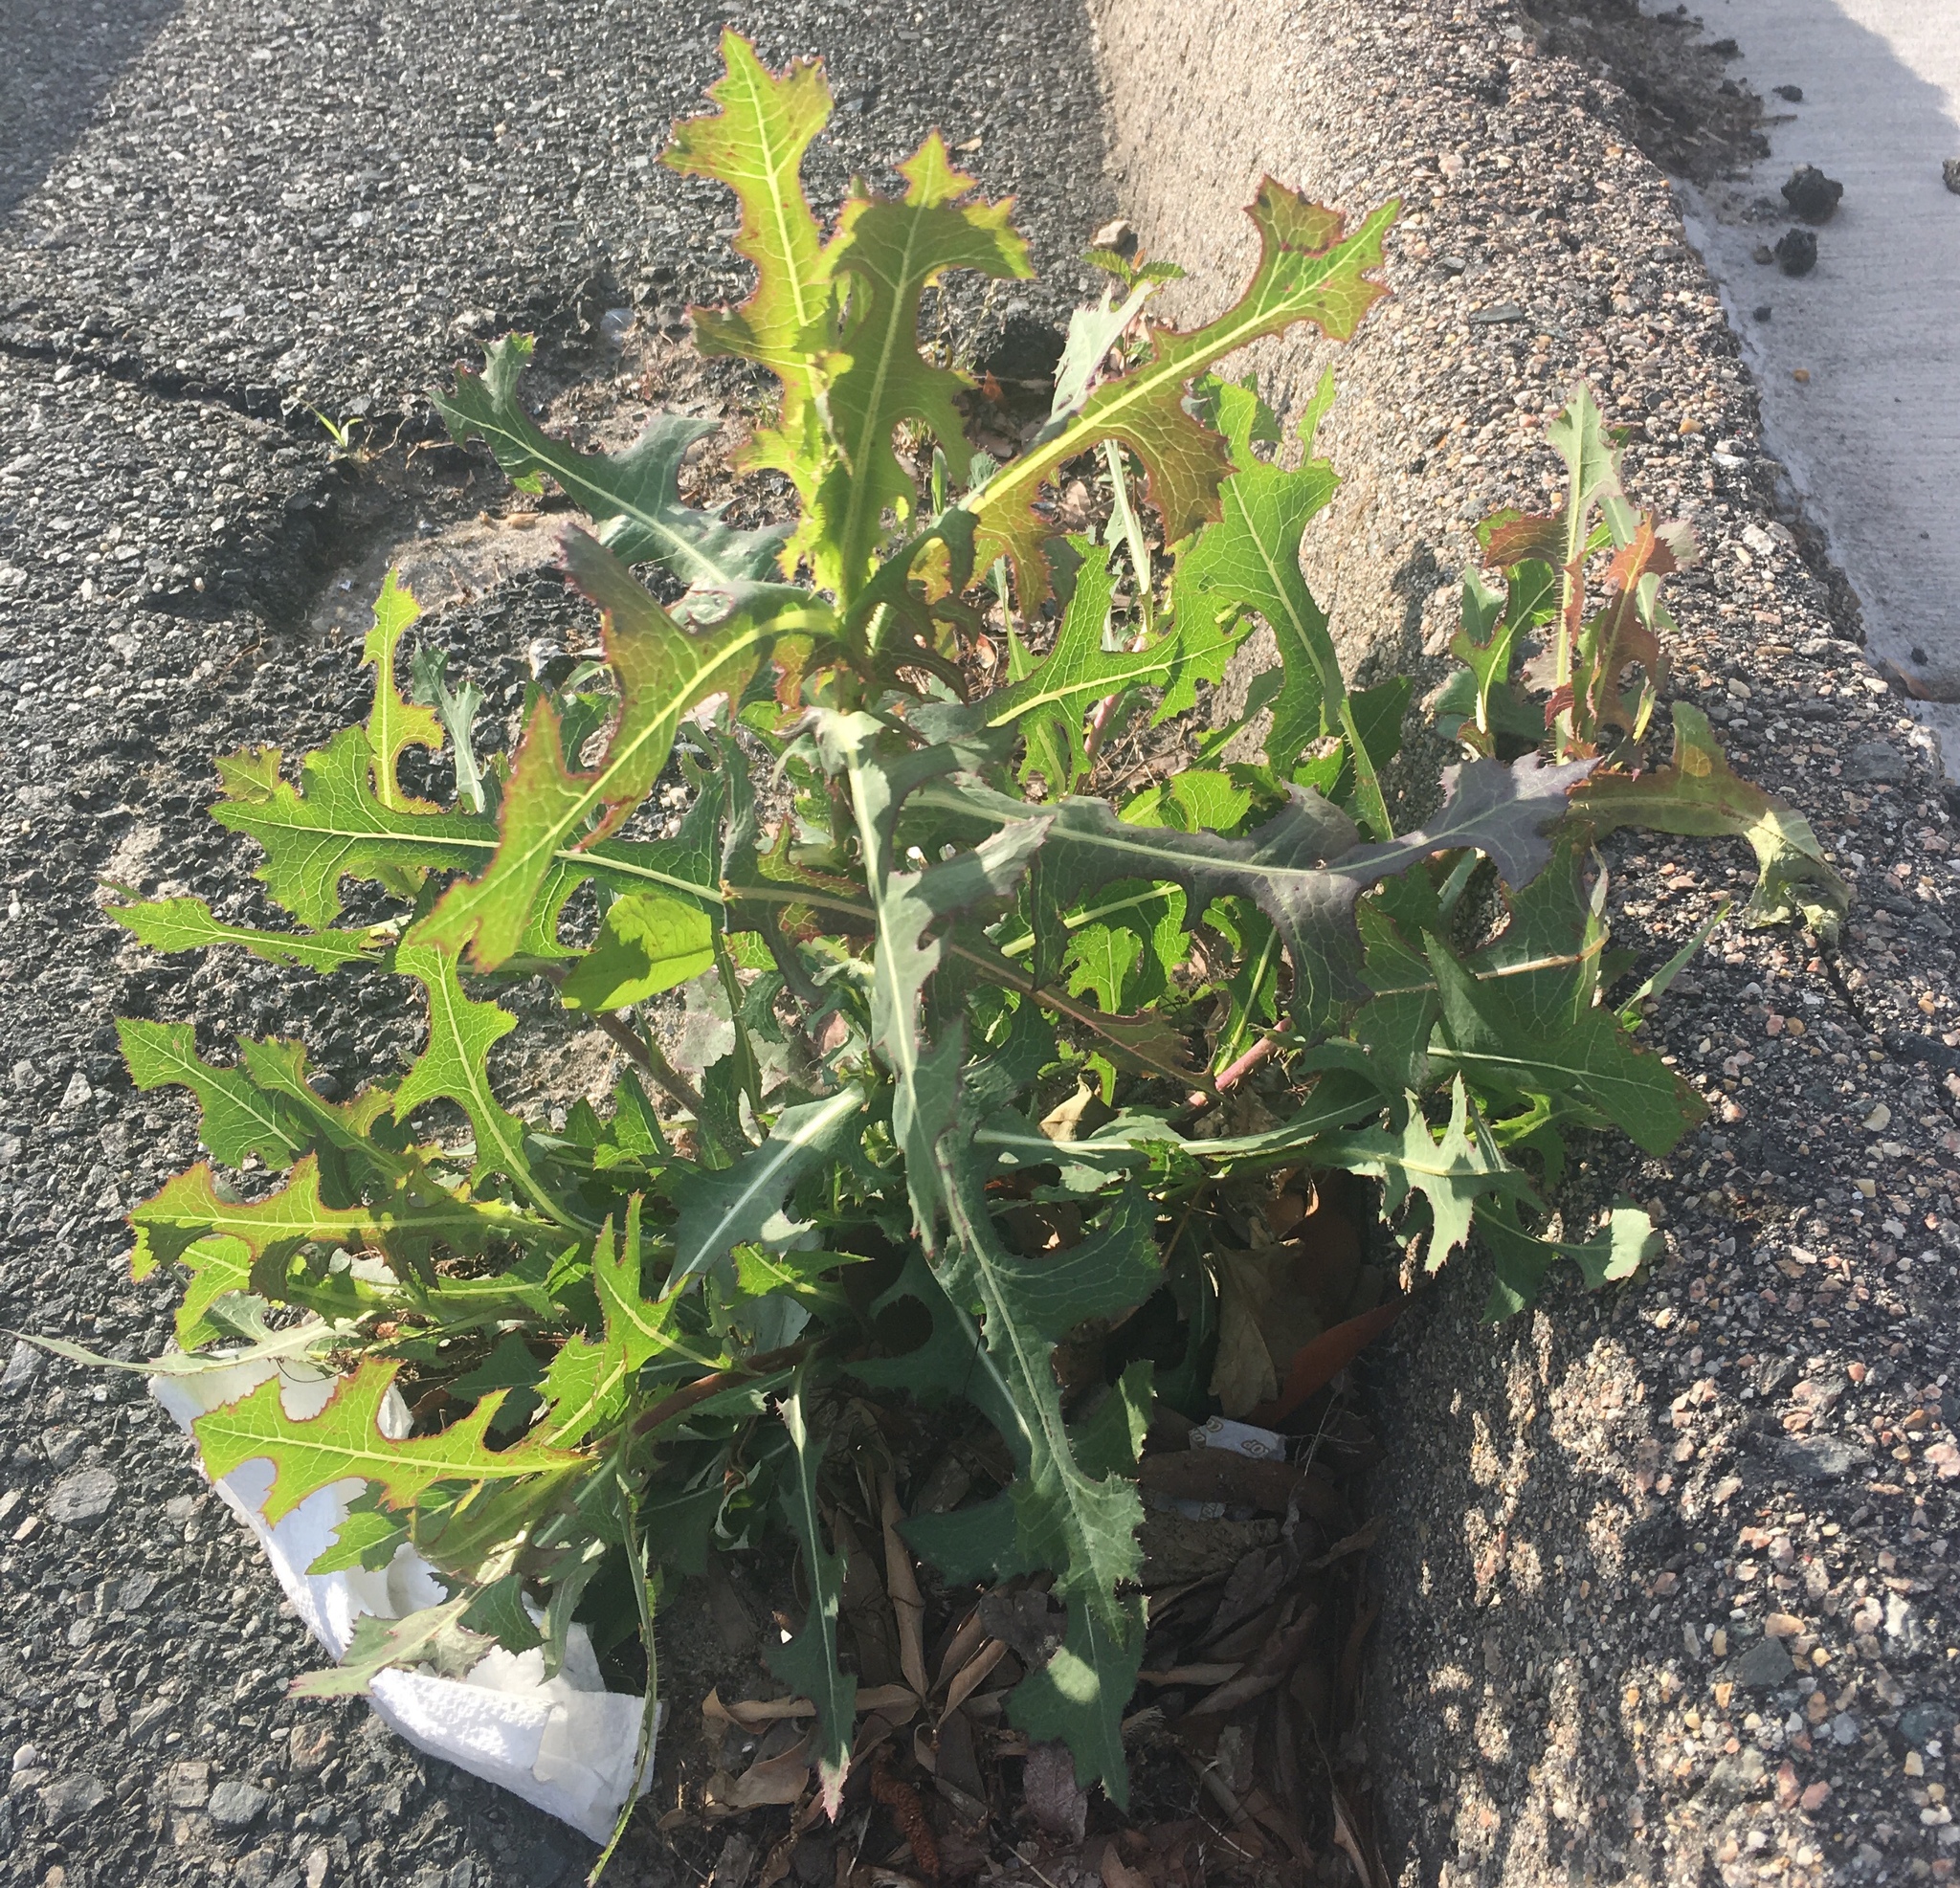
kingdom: Plantae
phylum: Tracheophyta
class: Magnoliopsida
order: Asterales
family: Asteraceae
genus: Lactuca
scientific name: Lactuca serriola
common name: Prickly lettuce
